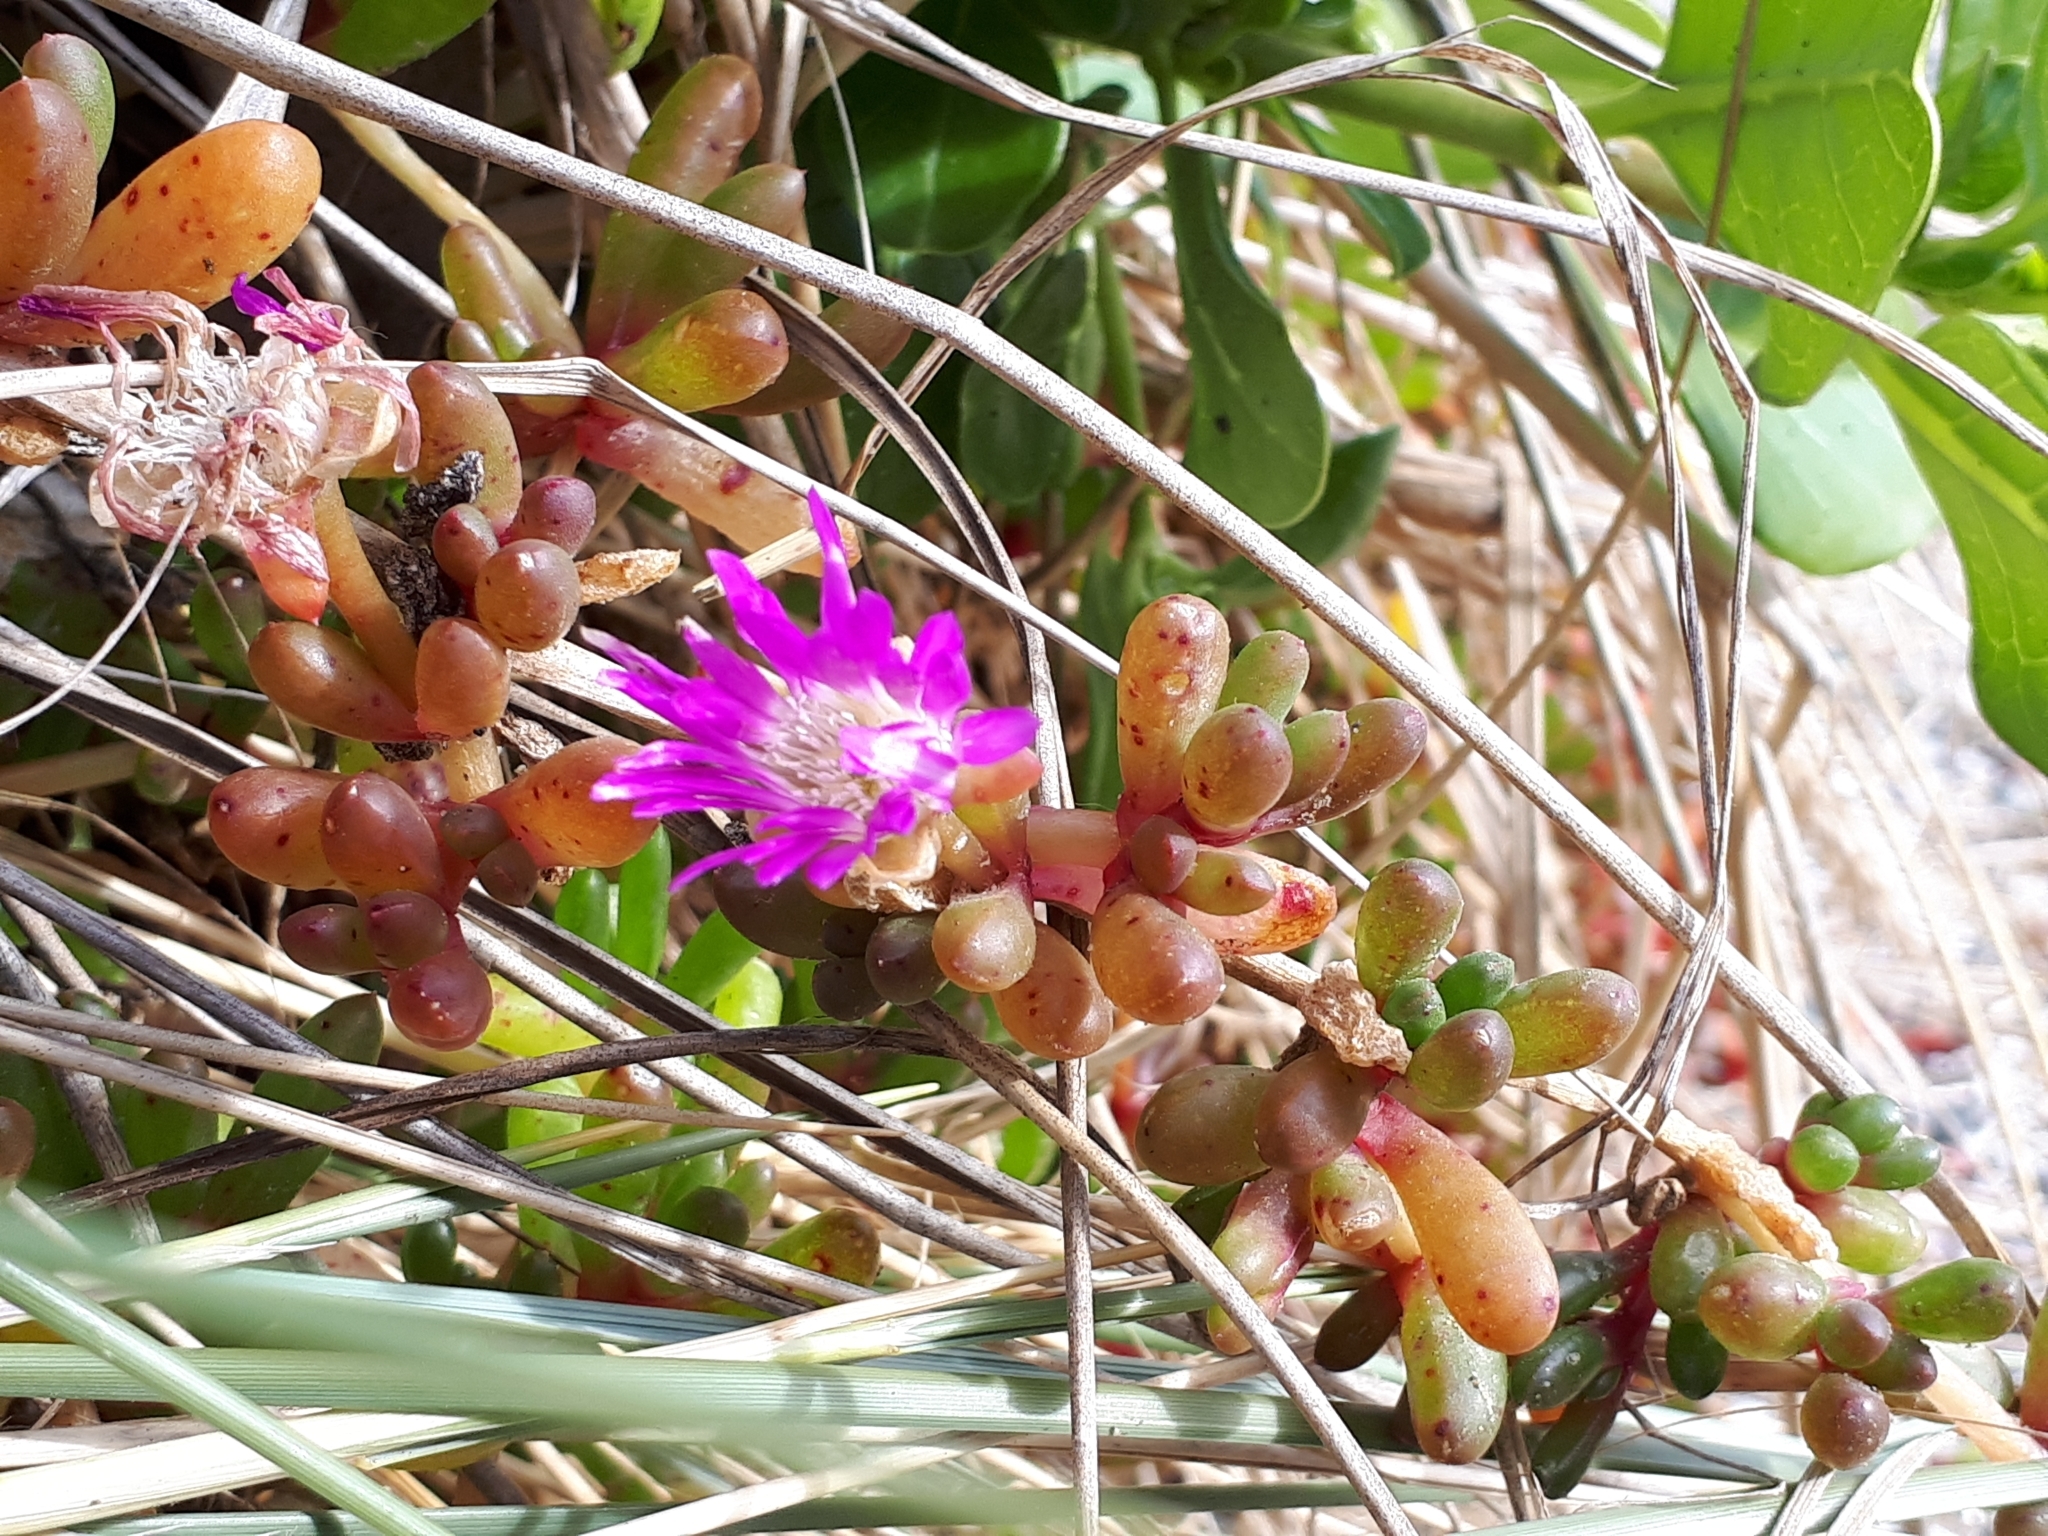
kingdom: Plantae
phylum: Tracheophyta
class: Magnoliopsida
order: Caryophyllales
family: Aizoaceae
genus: Disphyma
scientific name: Disphyma clavellatum
